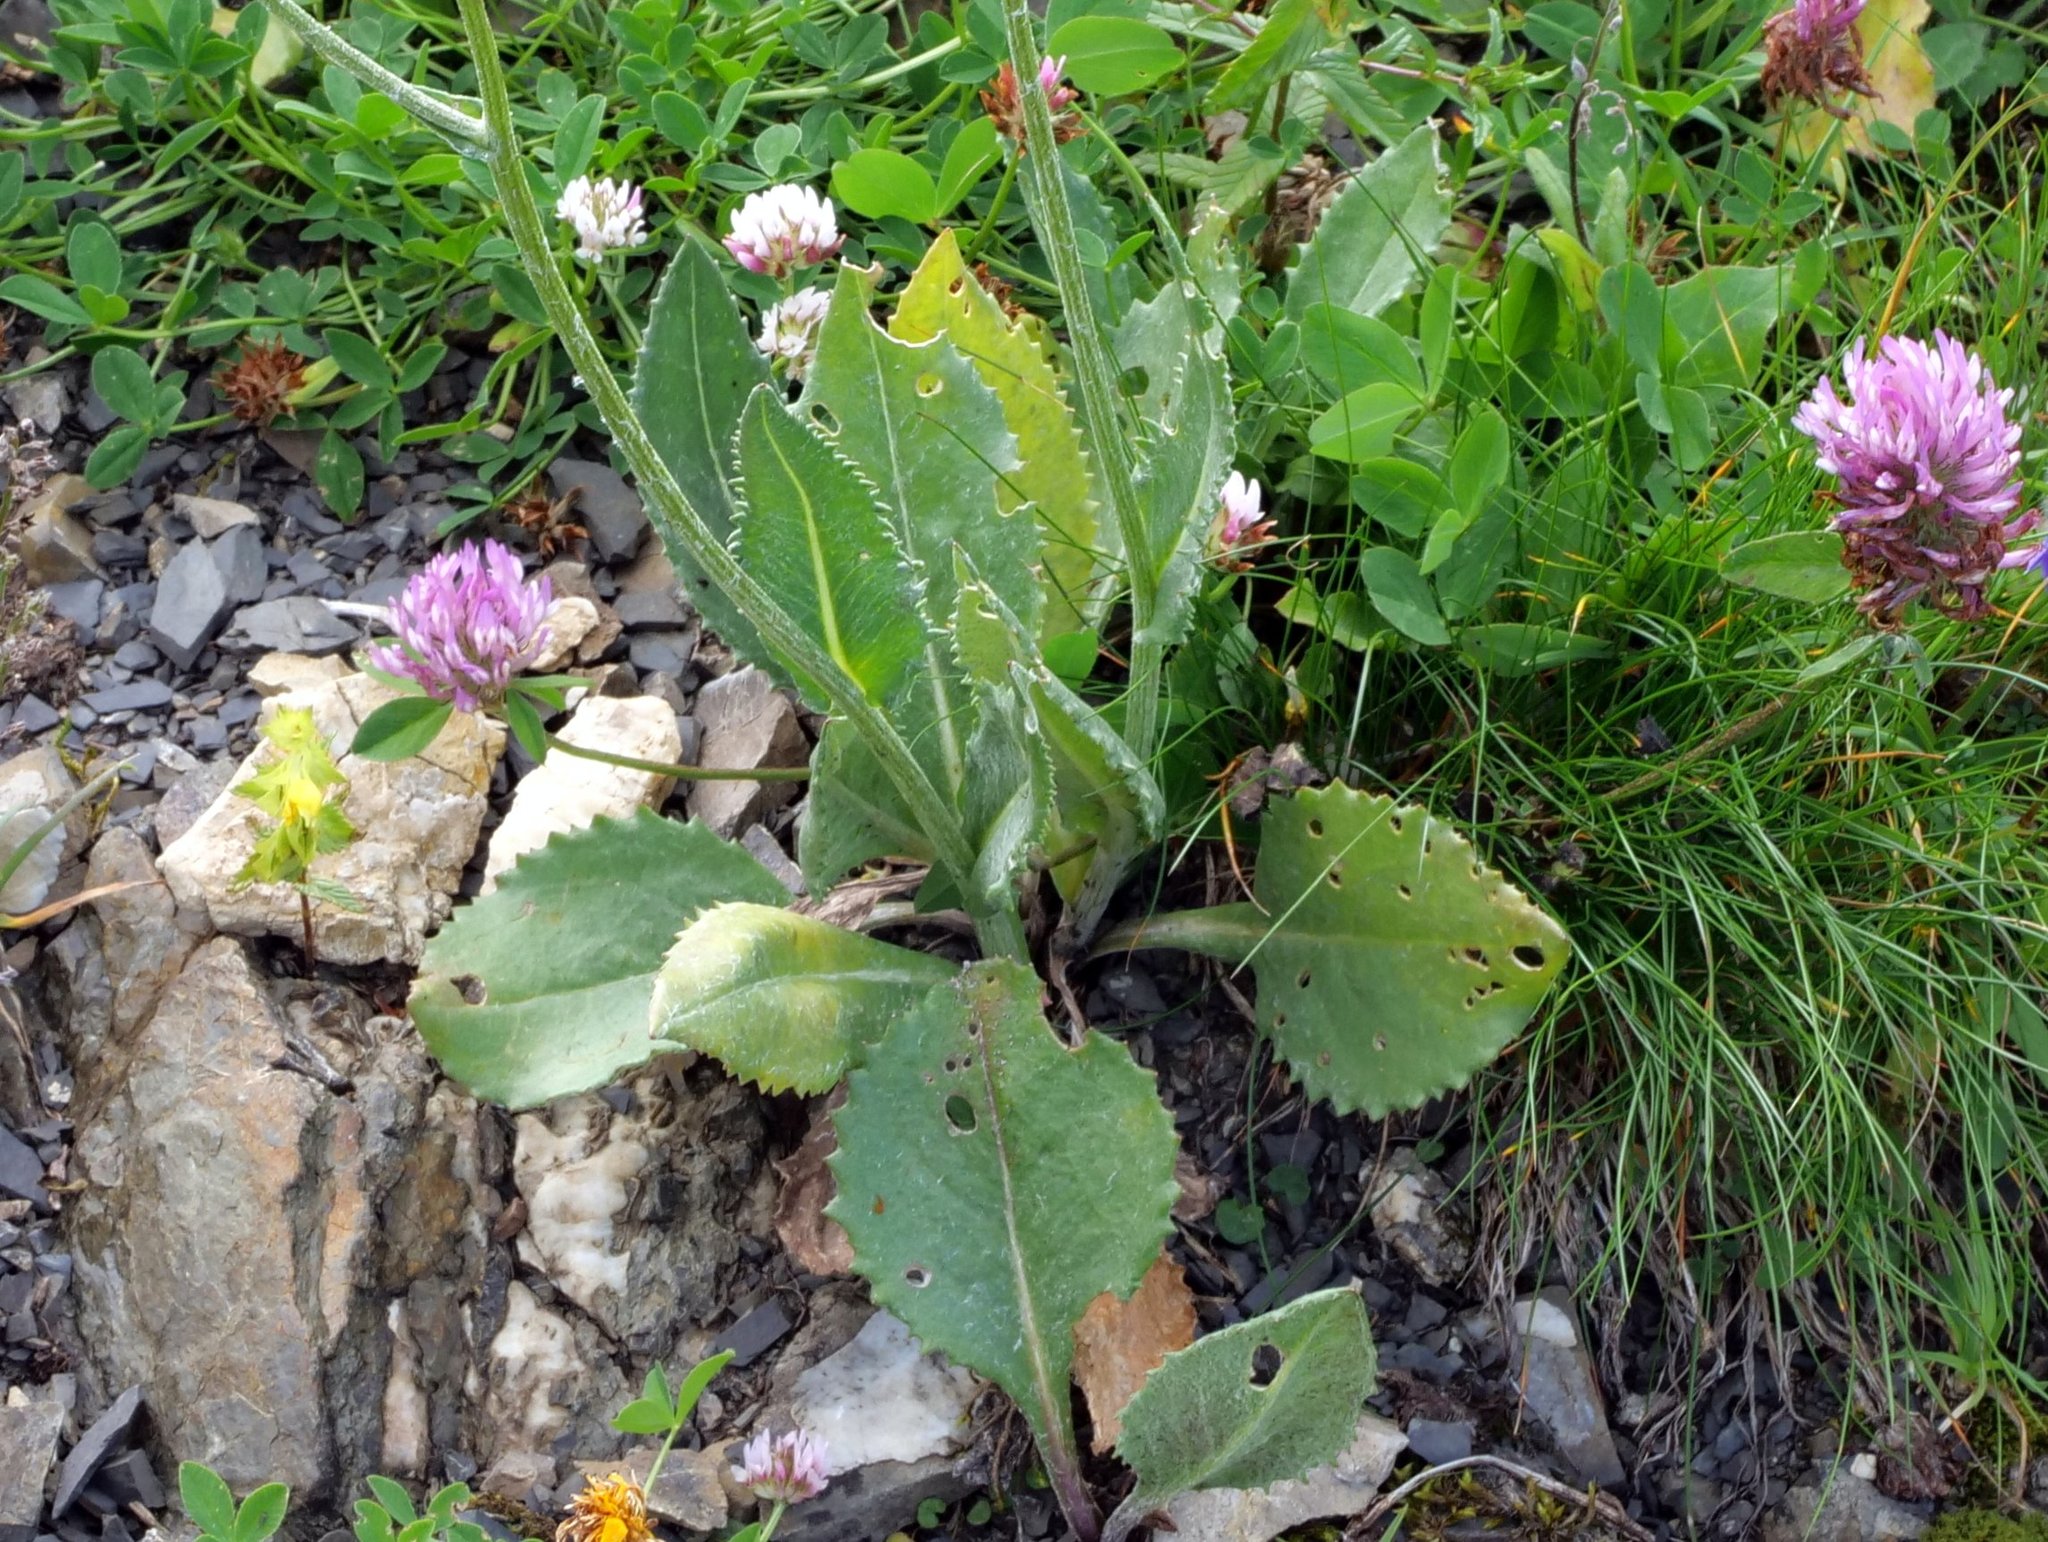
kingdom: Plantae
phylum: Tracheophyta
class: Magnoliopsida
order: Asterales
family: Asteraceae
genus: Senecio
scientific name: Senecio doronicum
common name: Chamois ragwort
